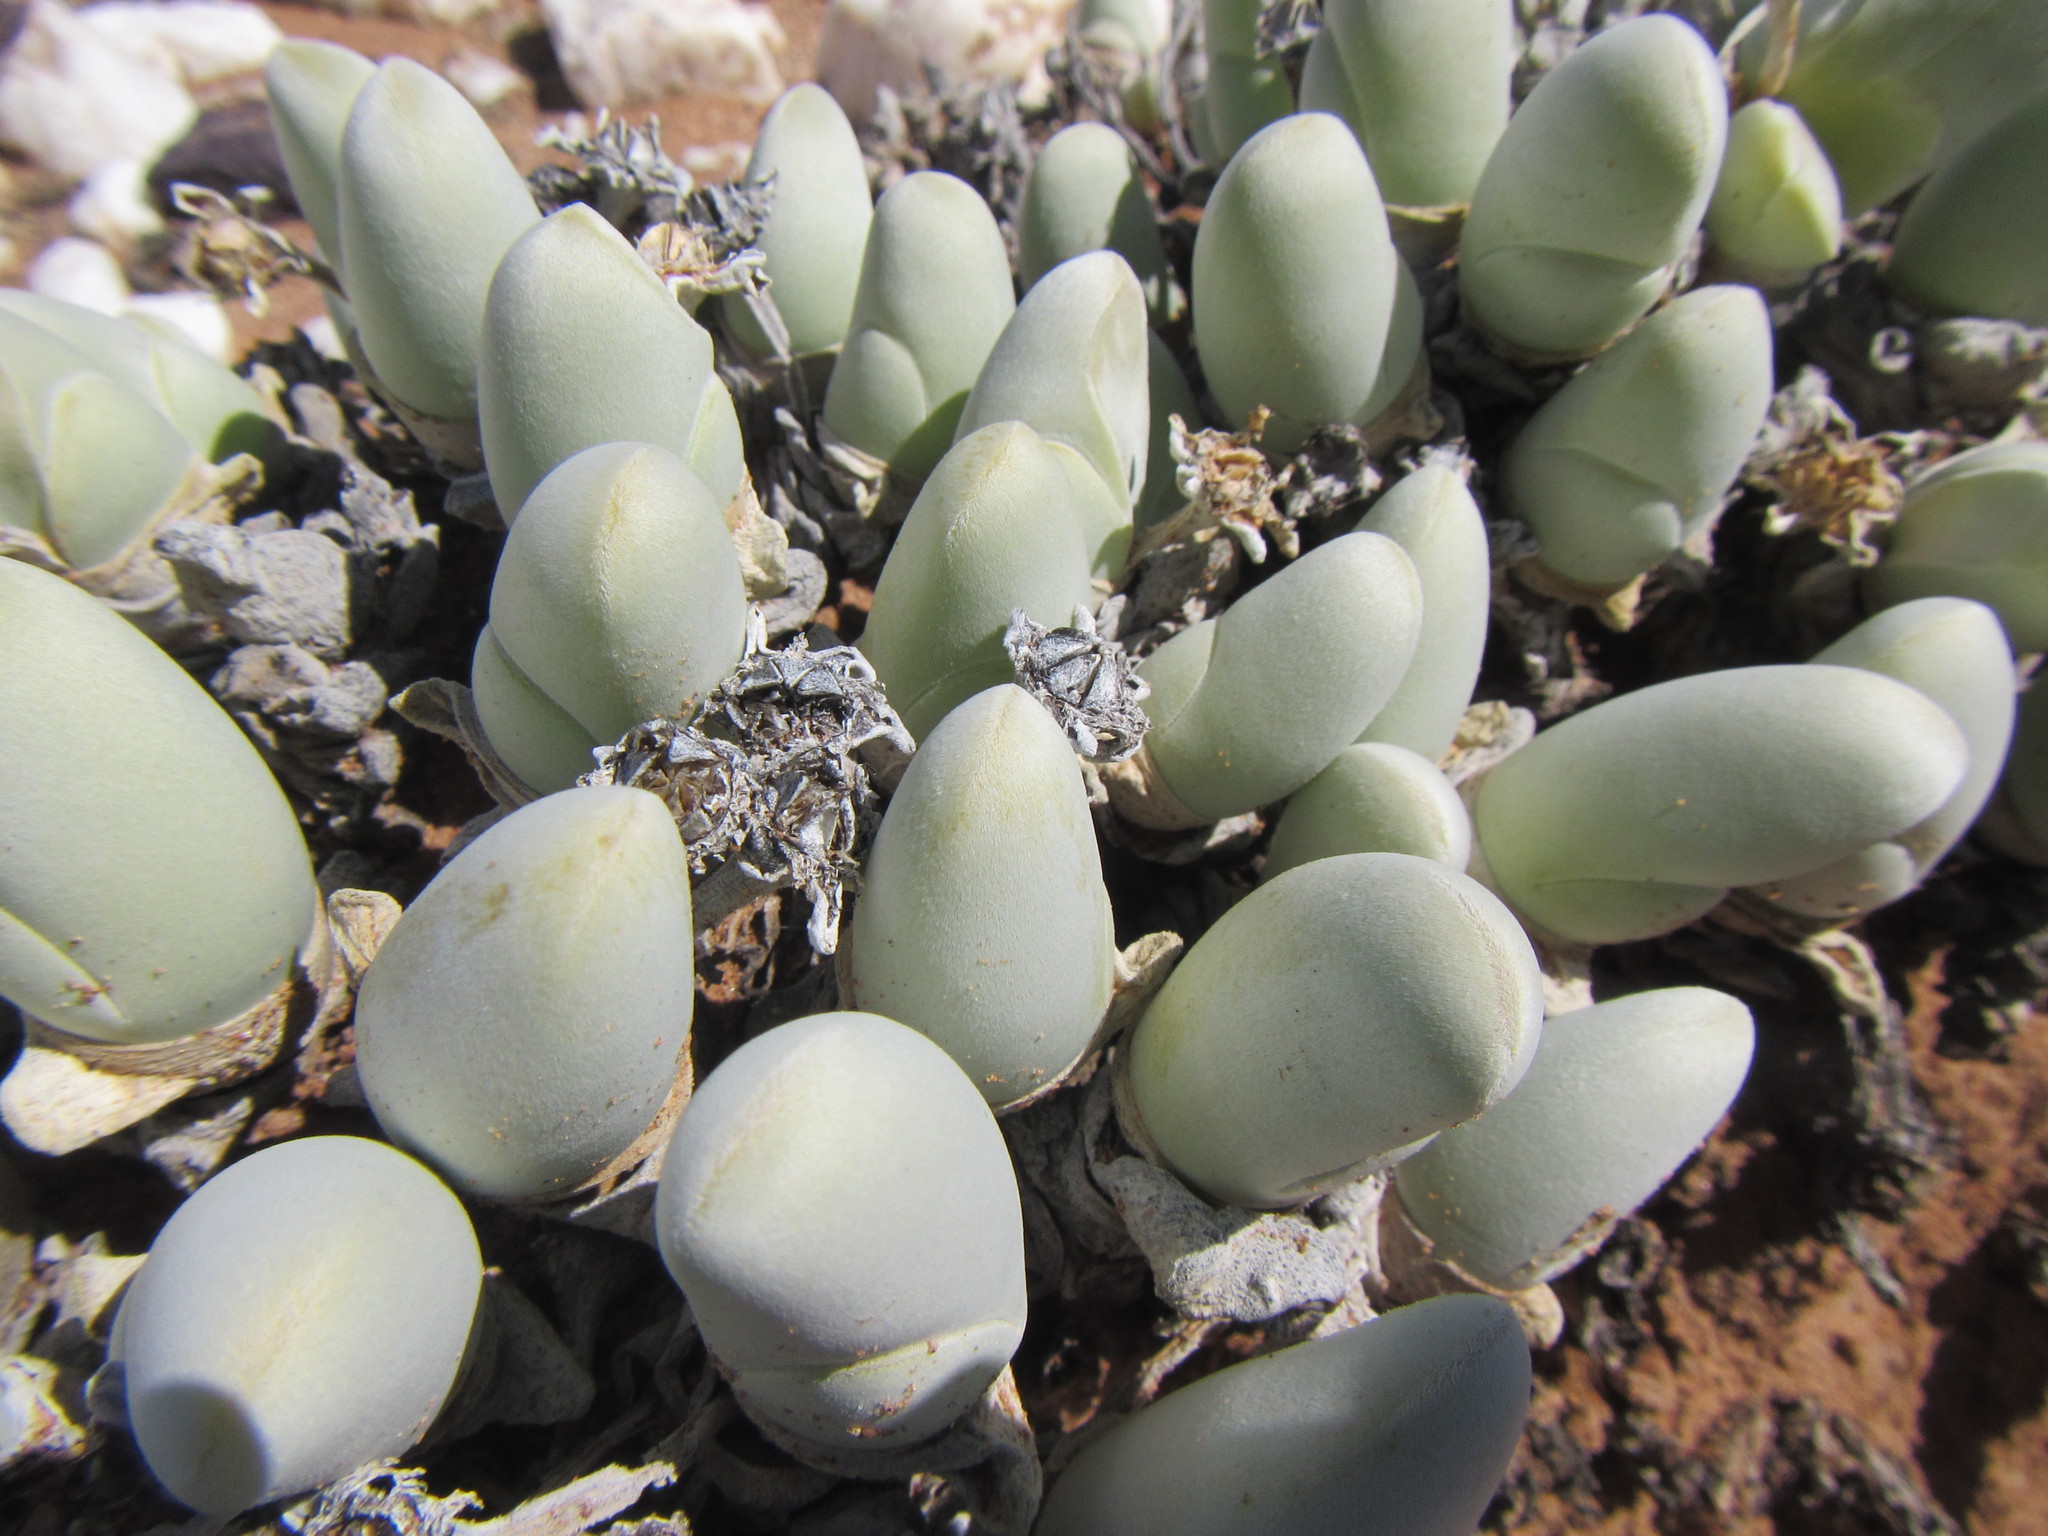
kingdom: Plantae
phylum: Tracheophyta
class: Magnoliopsida
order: Caryophyllales
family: Aizoaceae
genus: Gibbaeum
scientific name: Gibbaeum pubescens
